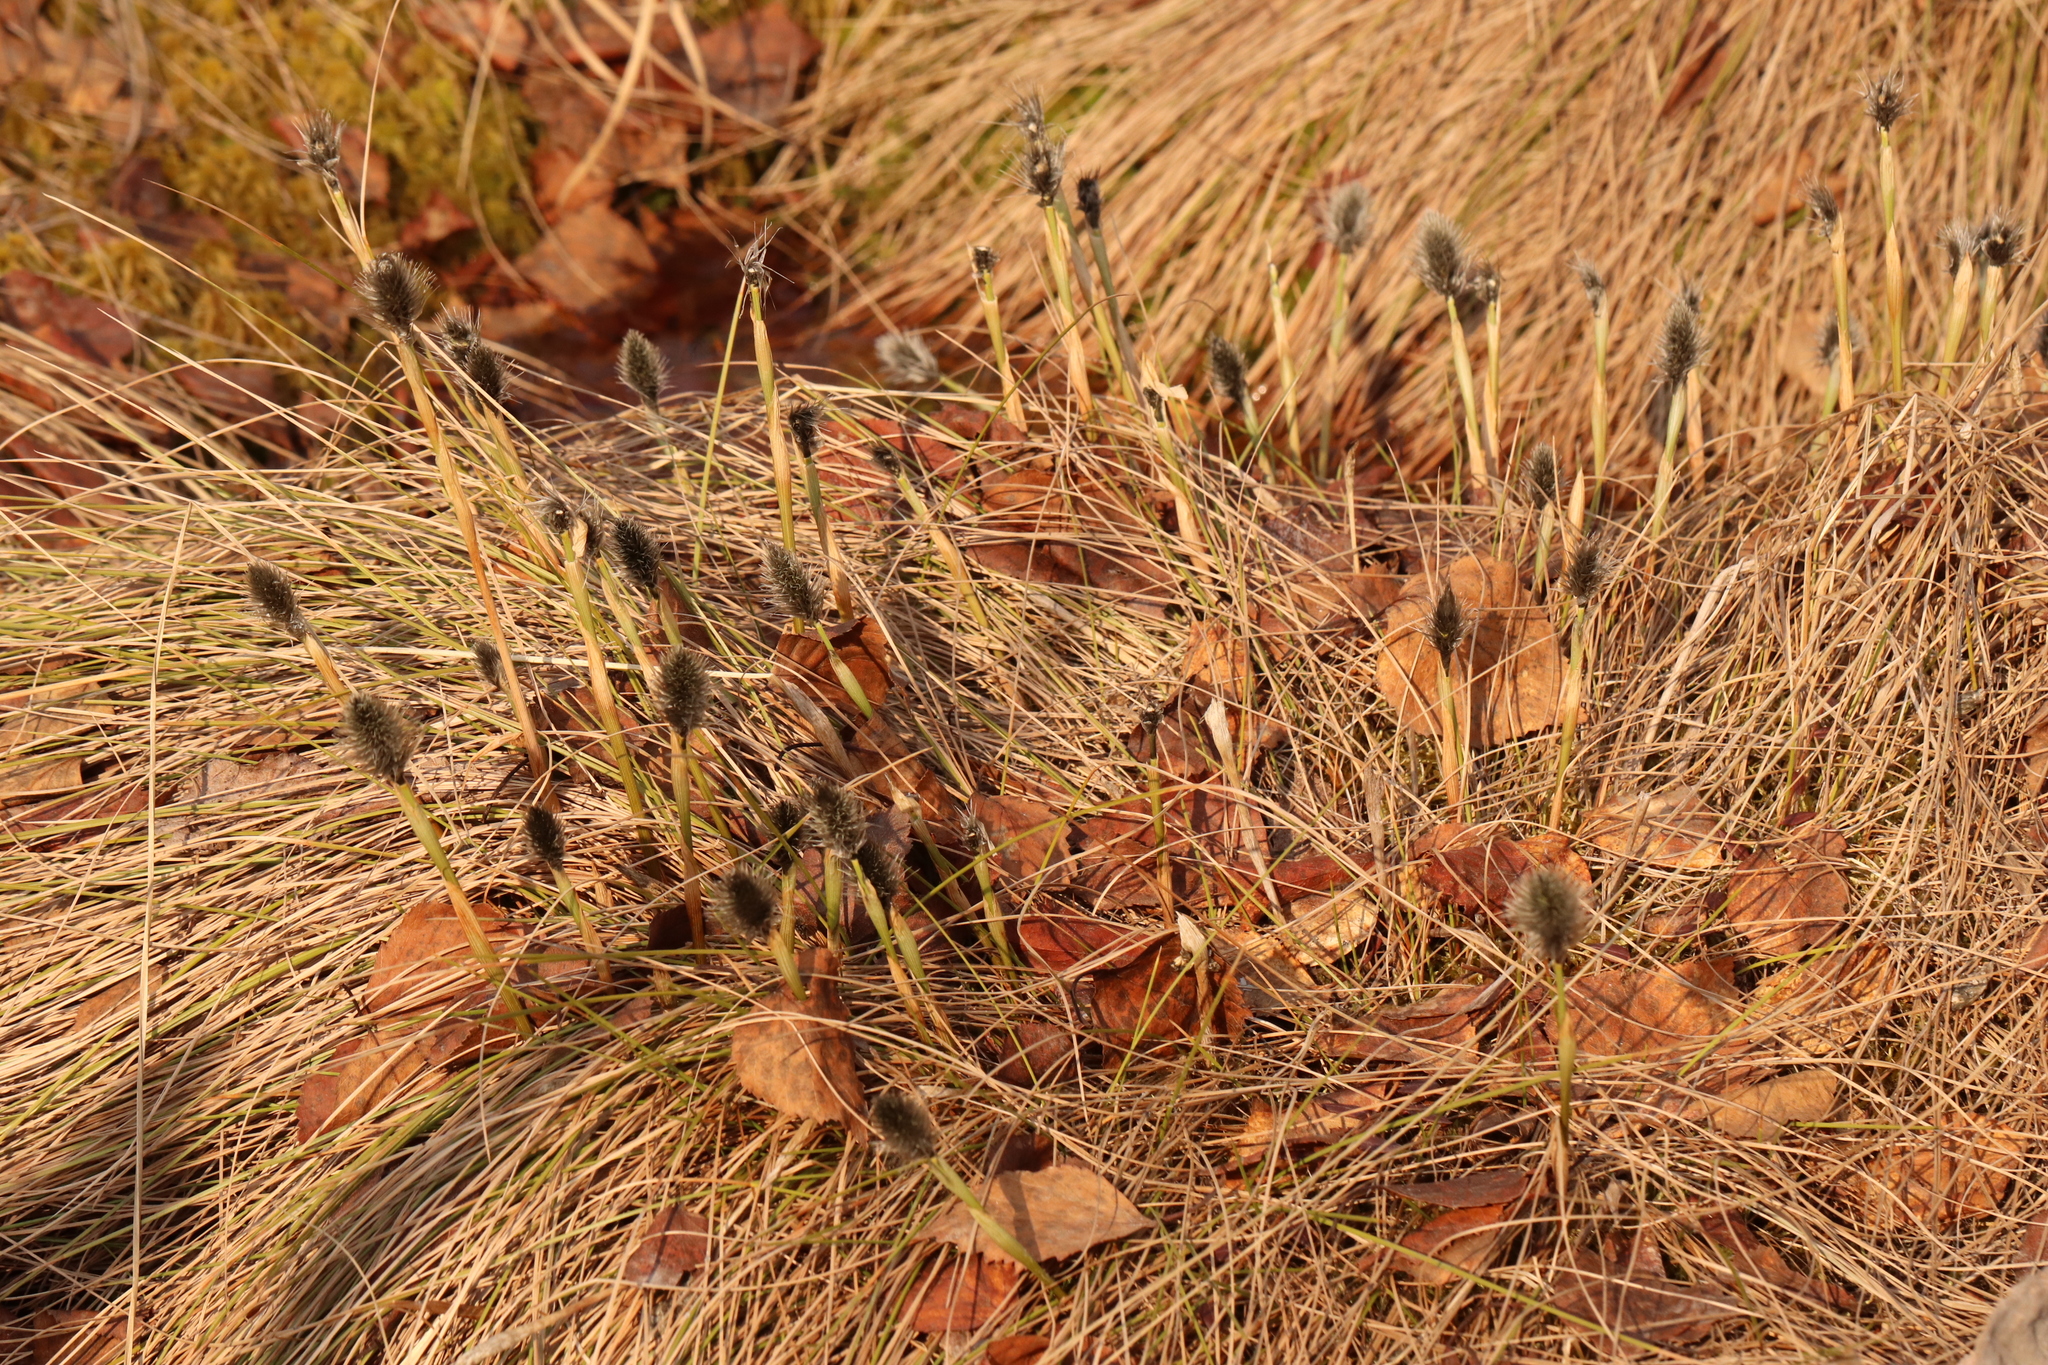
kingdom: Plantae
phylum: Tracheophyta
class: Liliopsida
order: Poales
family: Cyperaceae
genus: Eriophorum
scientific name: Eriophorum vaginatum
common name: Hare's-tail cottongrass
